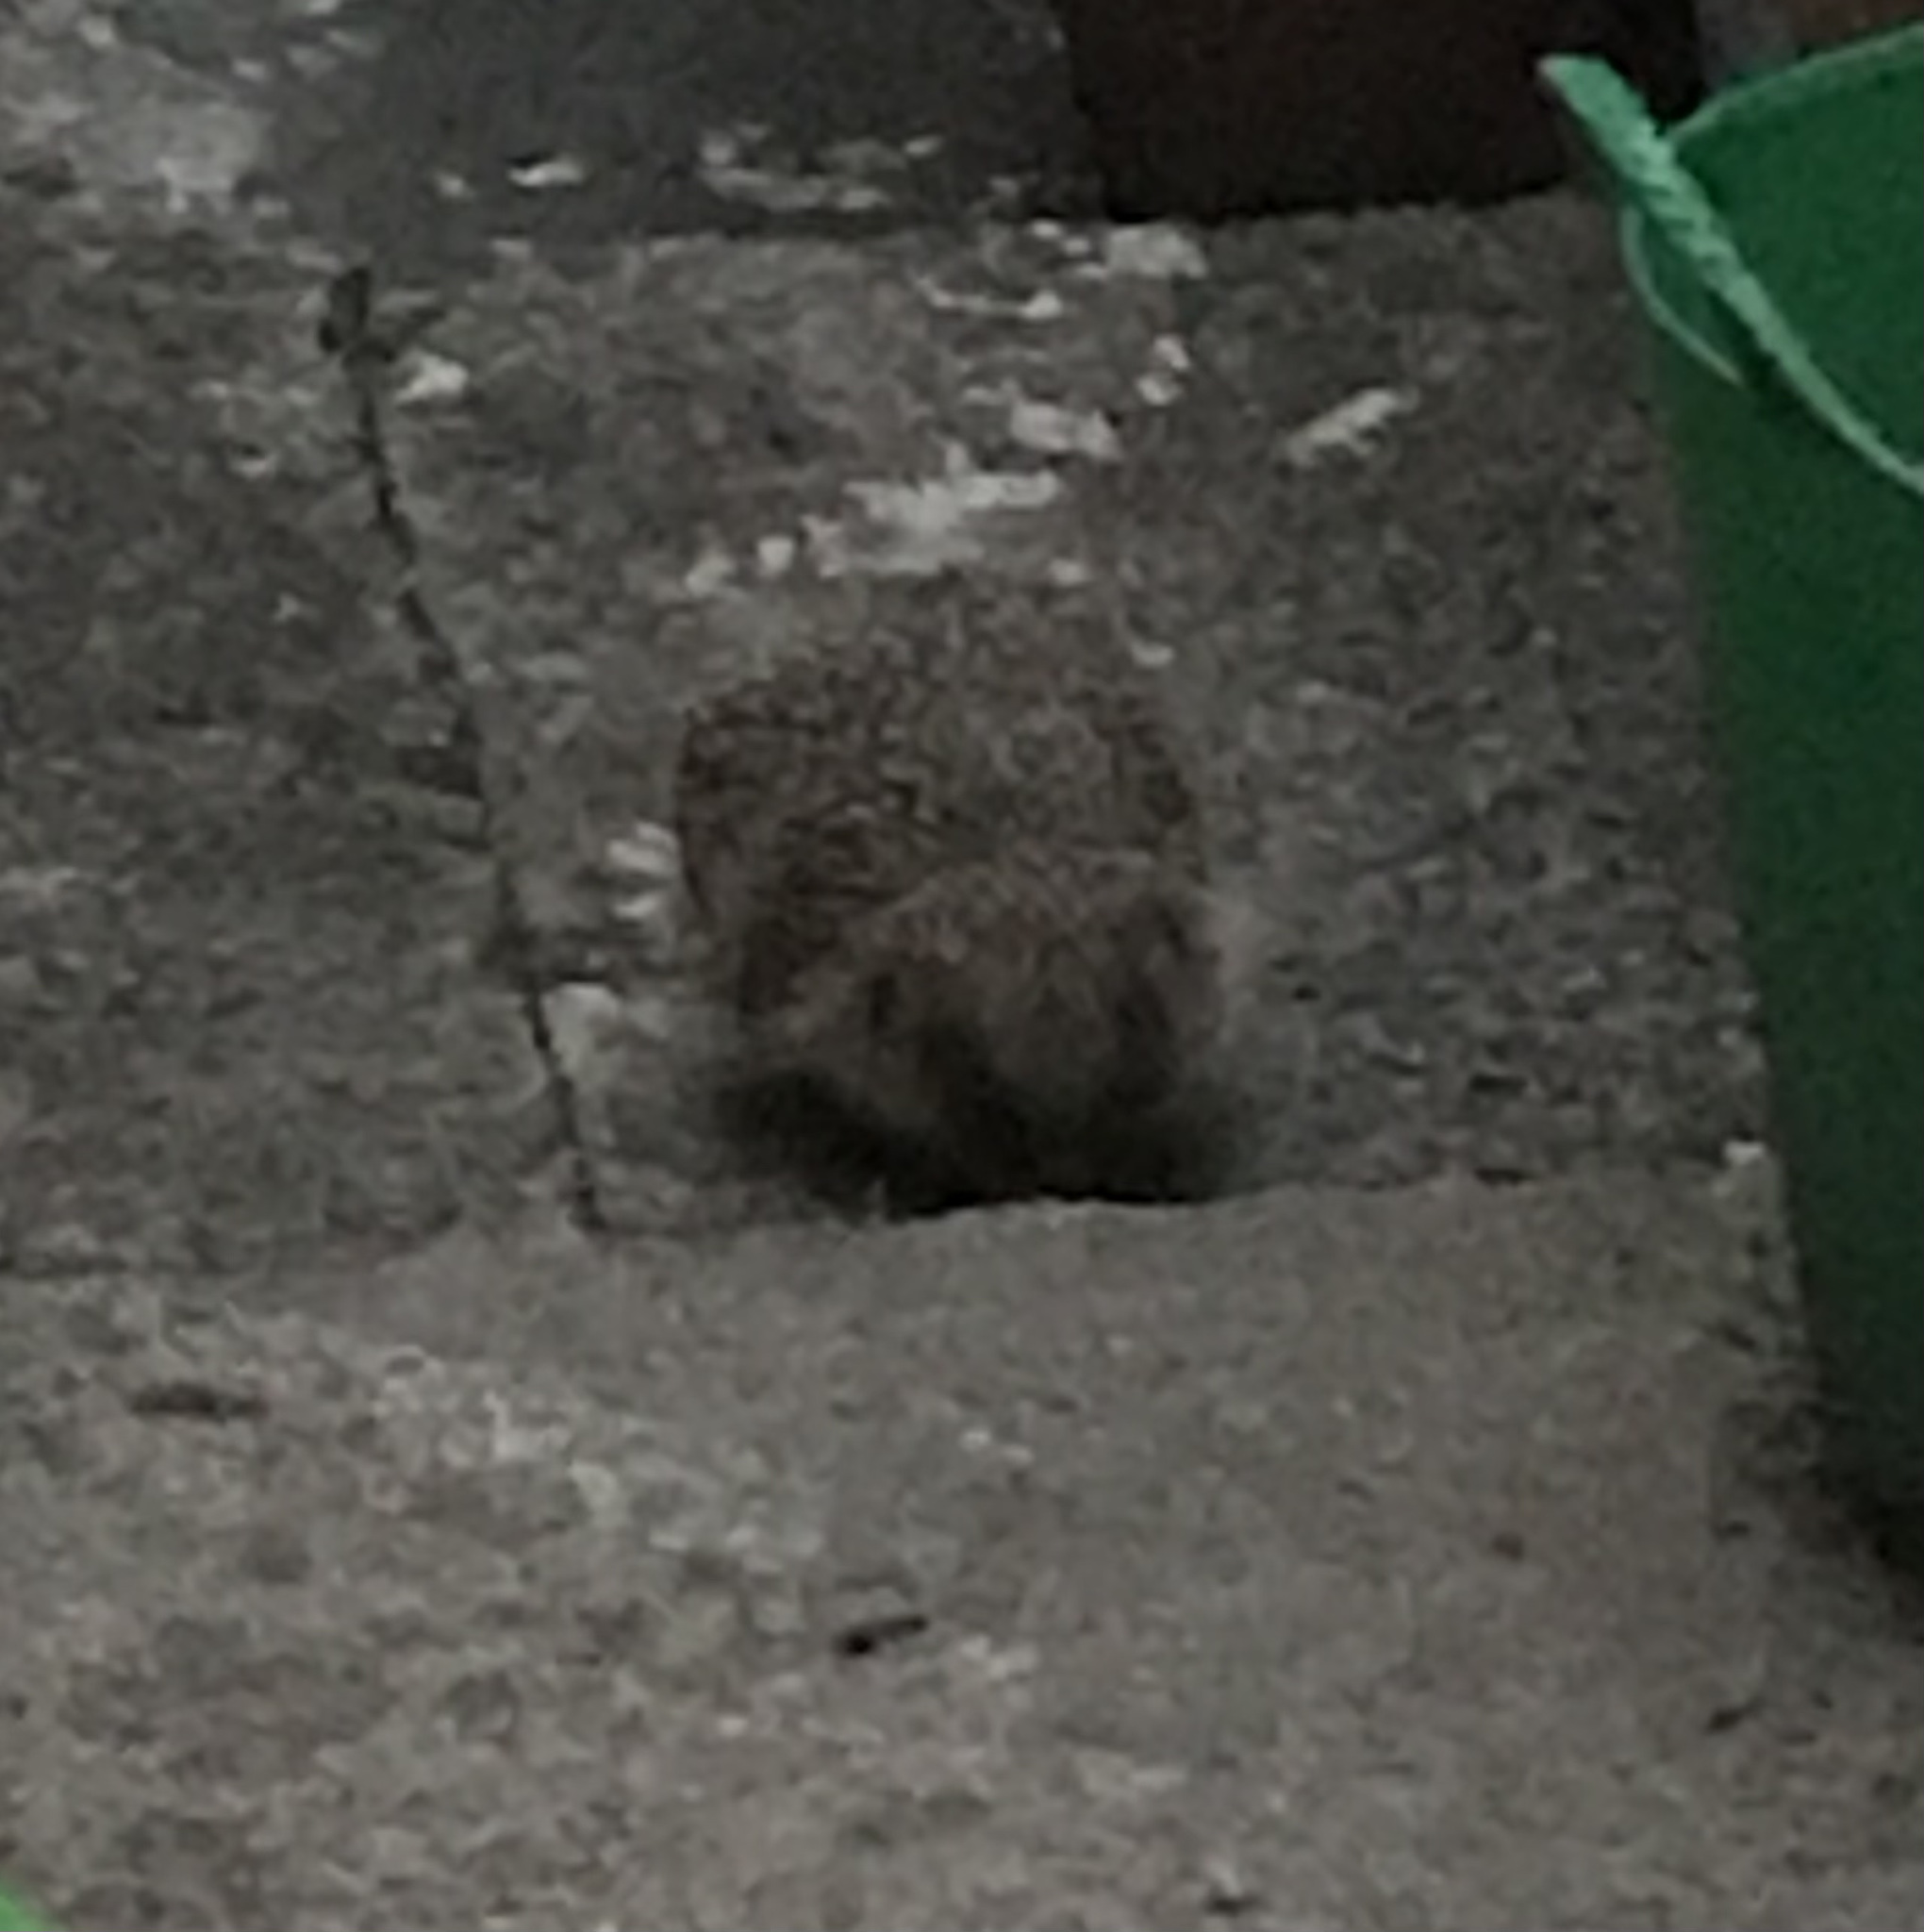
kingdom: Animalia
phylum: Chordata
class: Mammalia
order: Erinaceomorpha
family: Erinaceidae
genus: Erinaceus
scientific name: Erinaceus europaeus
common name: West european hedgehog
